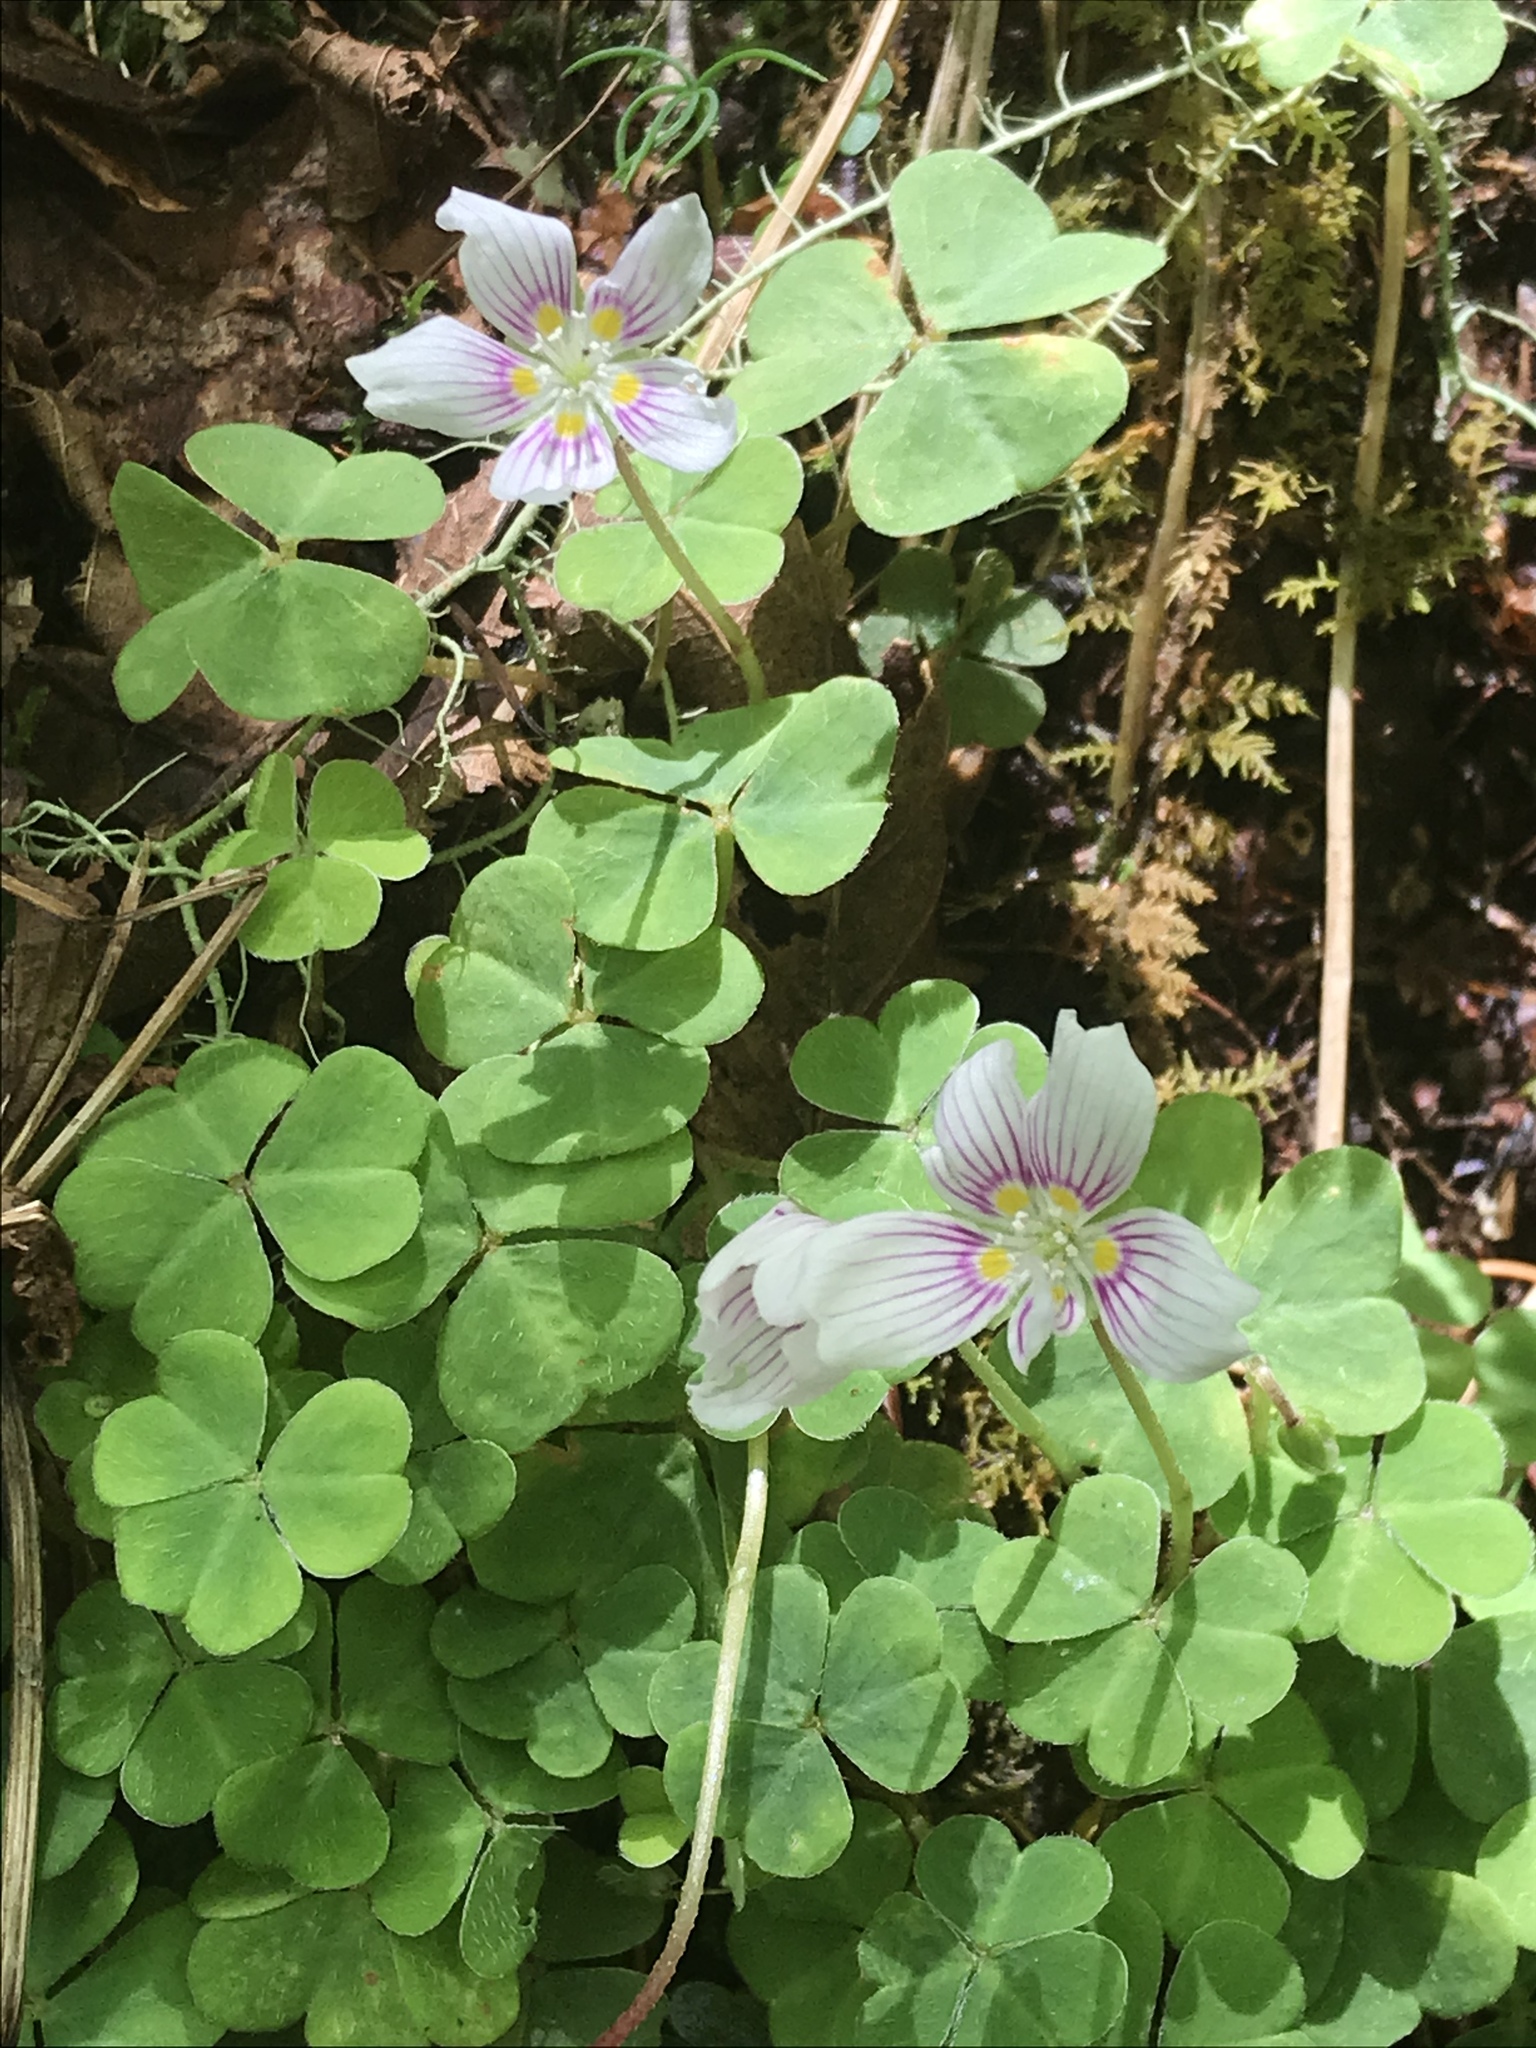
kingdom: Plantae
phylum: Tracheophyta
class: Magnoliopsida
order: Oxalidales
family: Oxalidaceae
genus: Oxalis
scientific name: Oxalis montana
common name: American wood-sorrel
